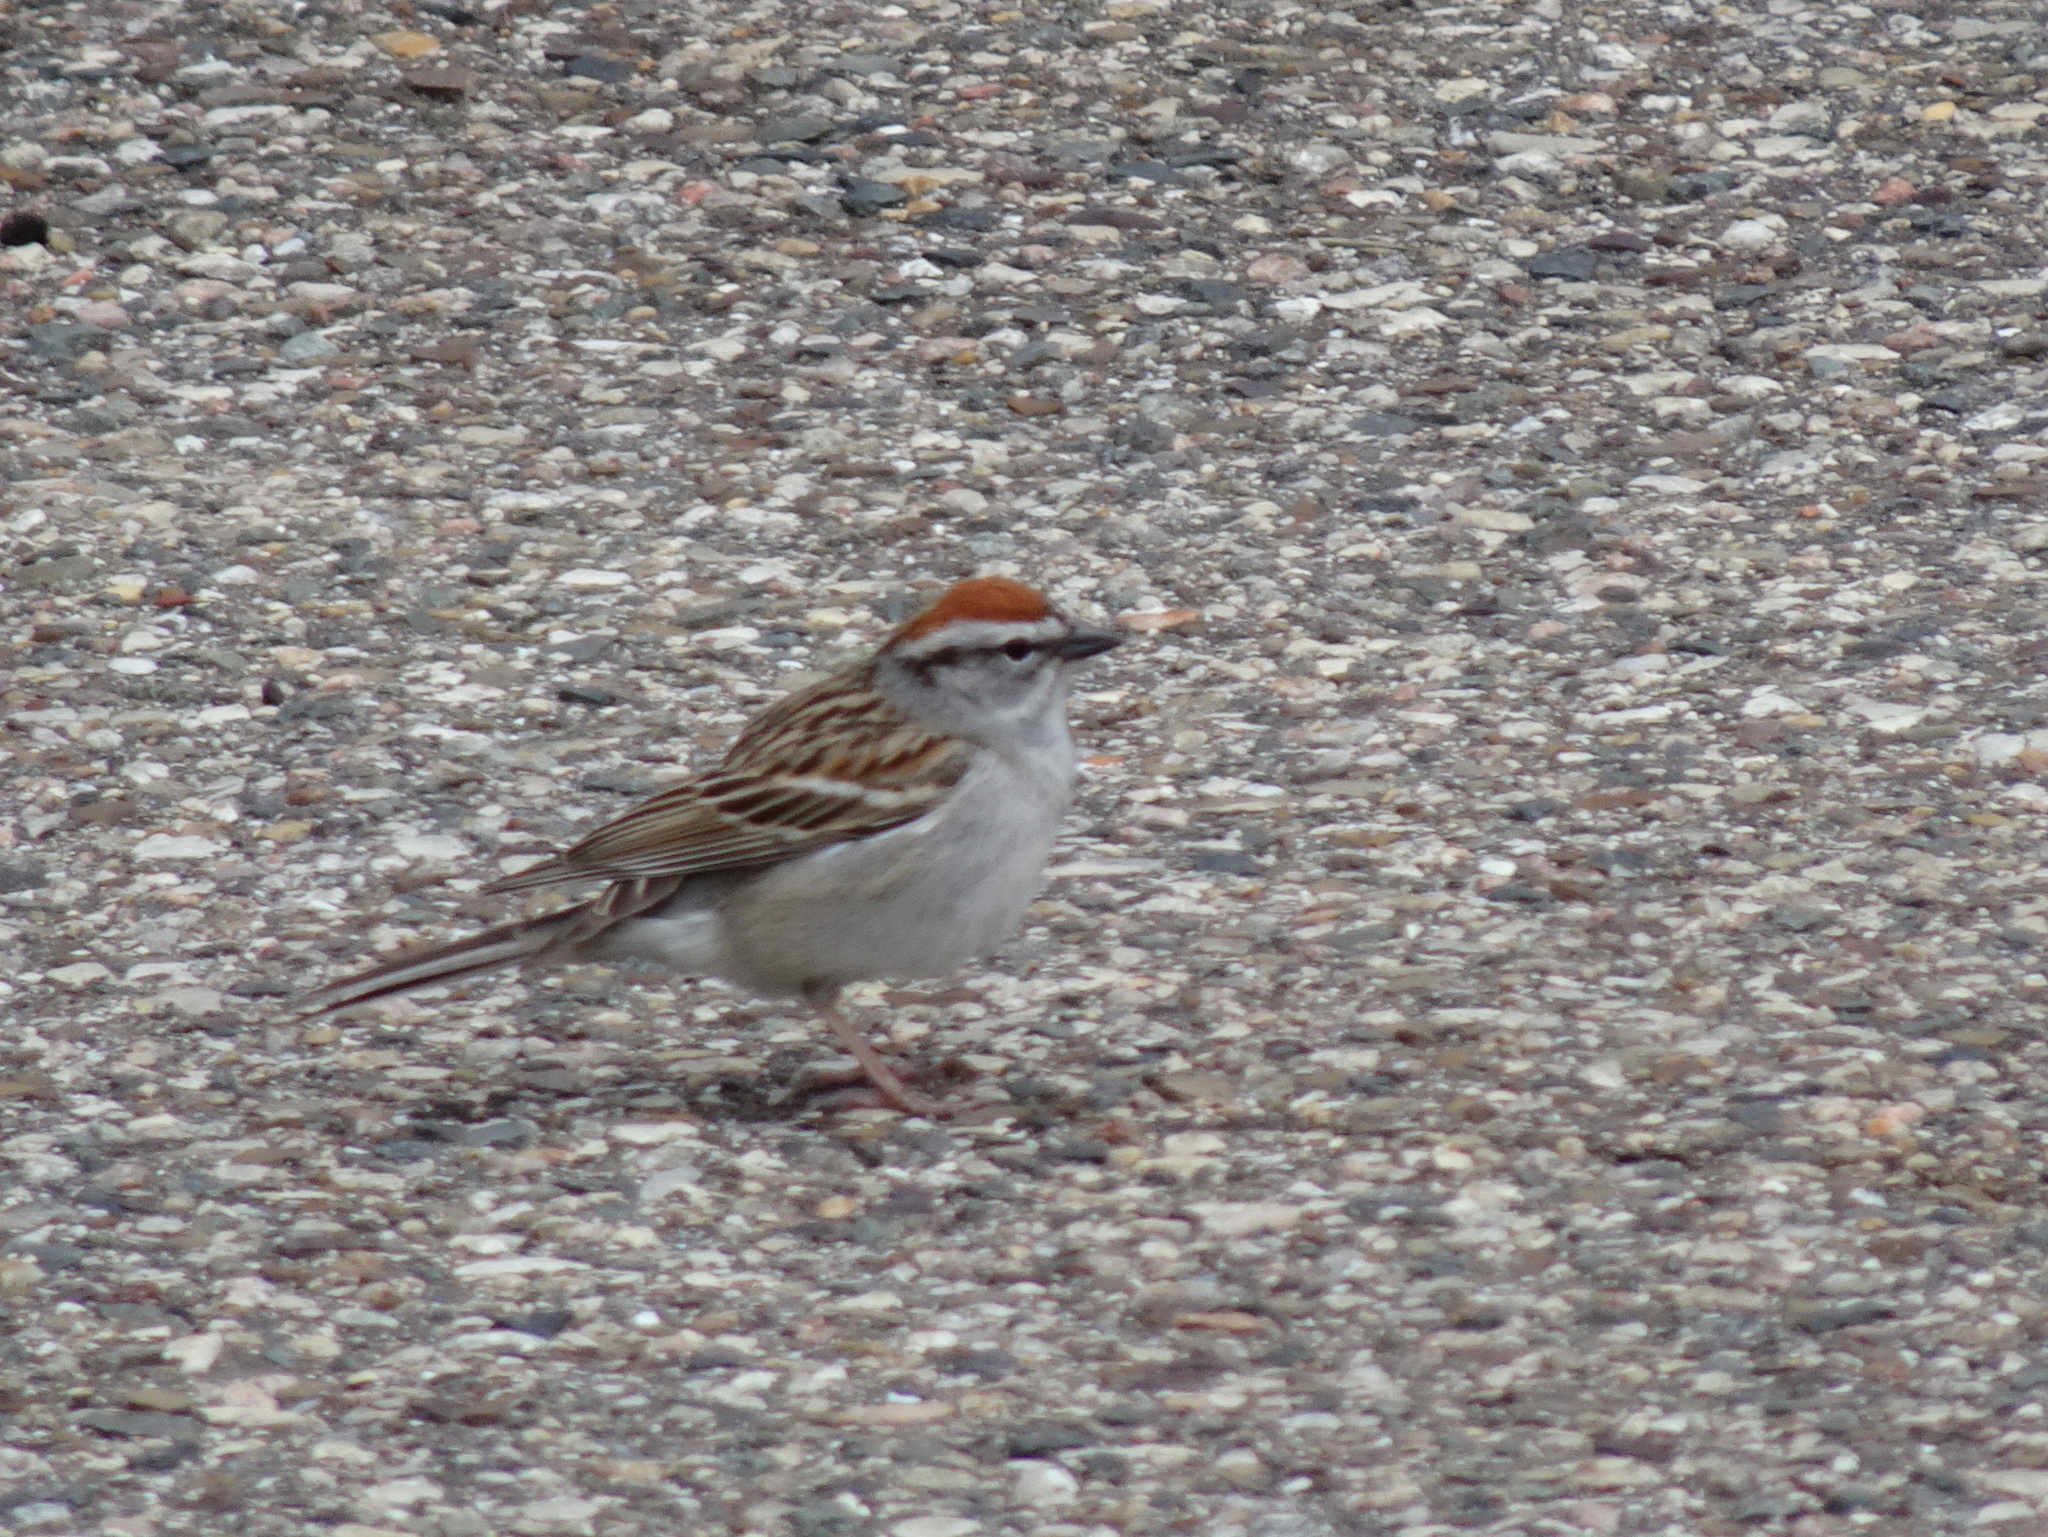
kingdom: Animalia
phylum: Chordata
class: Aves
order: Passeriformes
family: Passerellidae
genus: Spizella
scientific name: Spizella passerina
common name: Chipping sparrow
